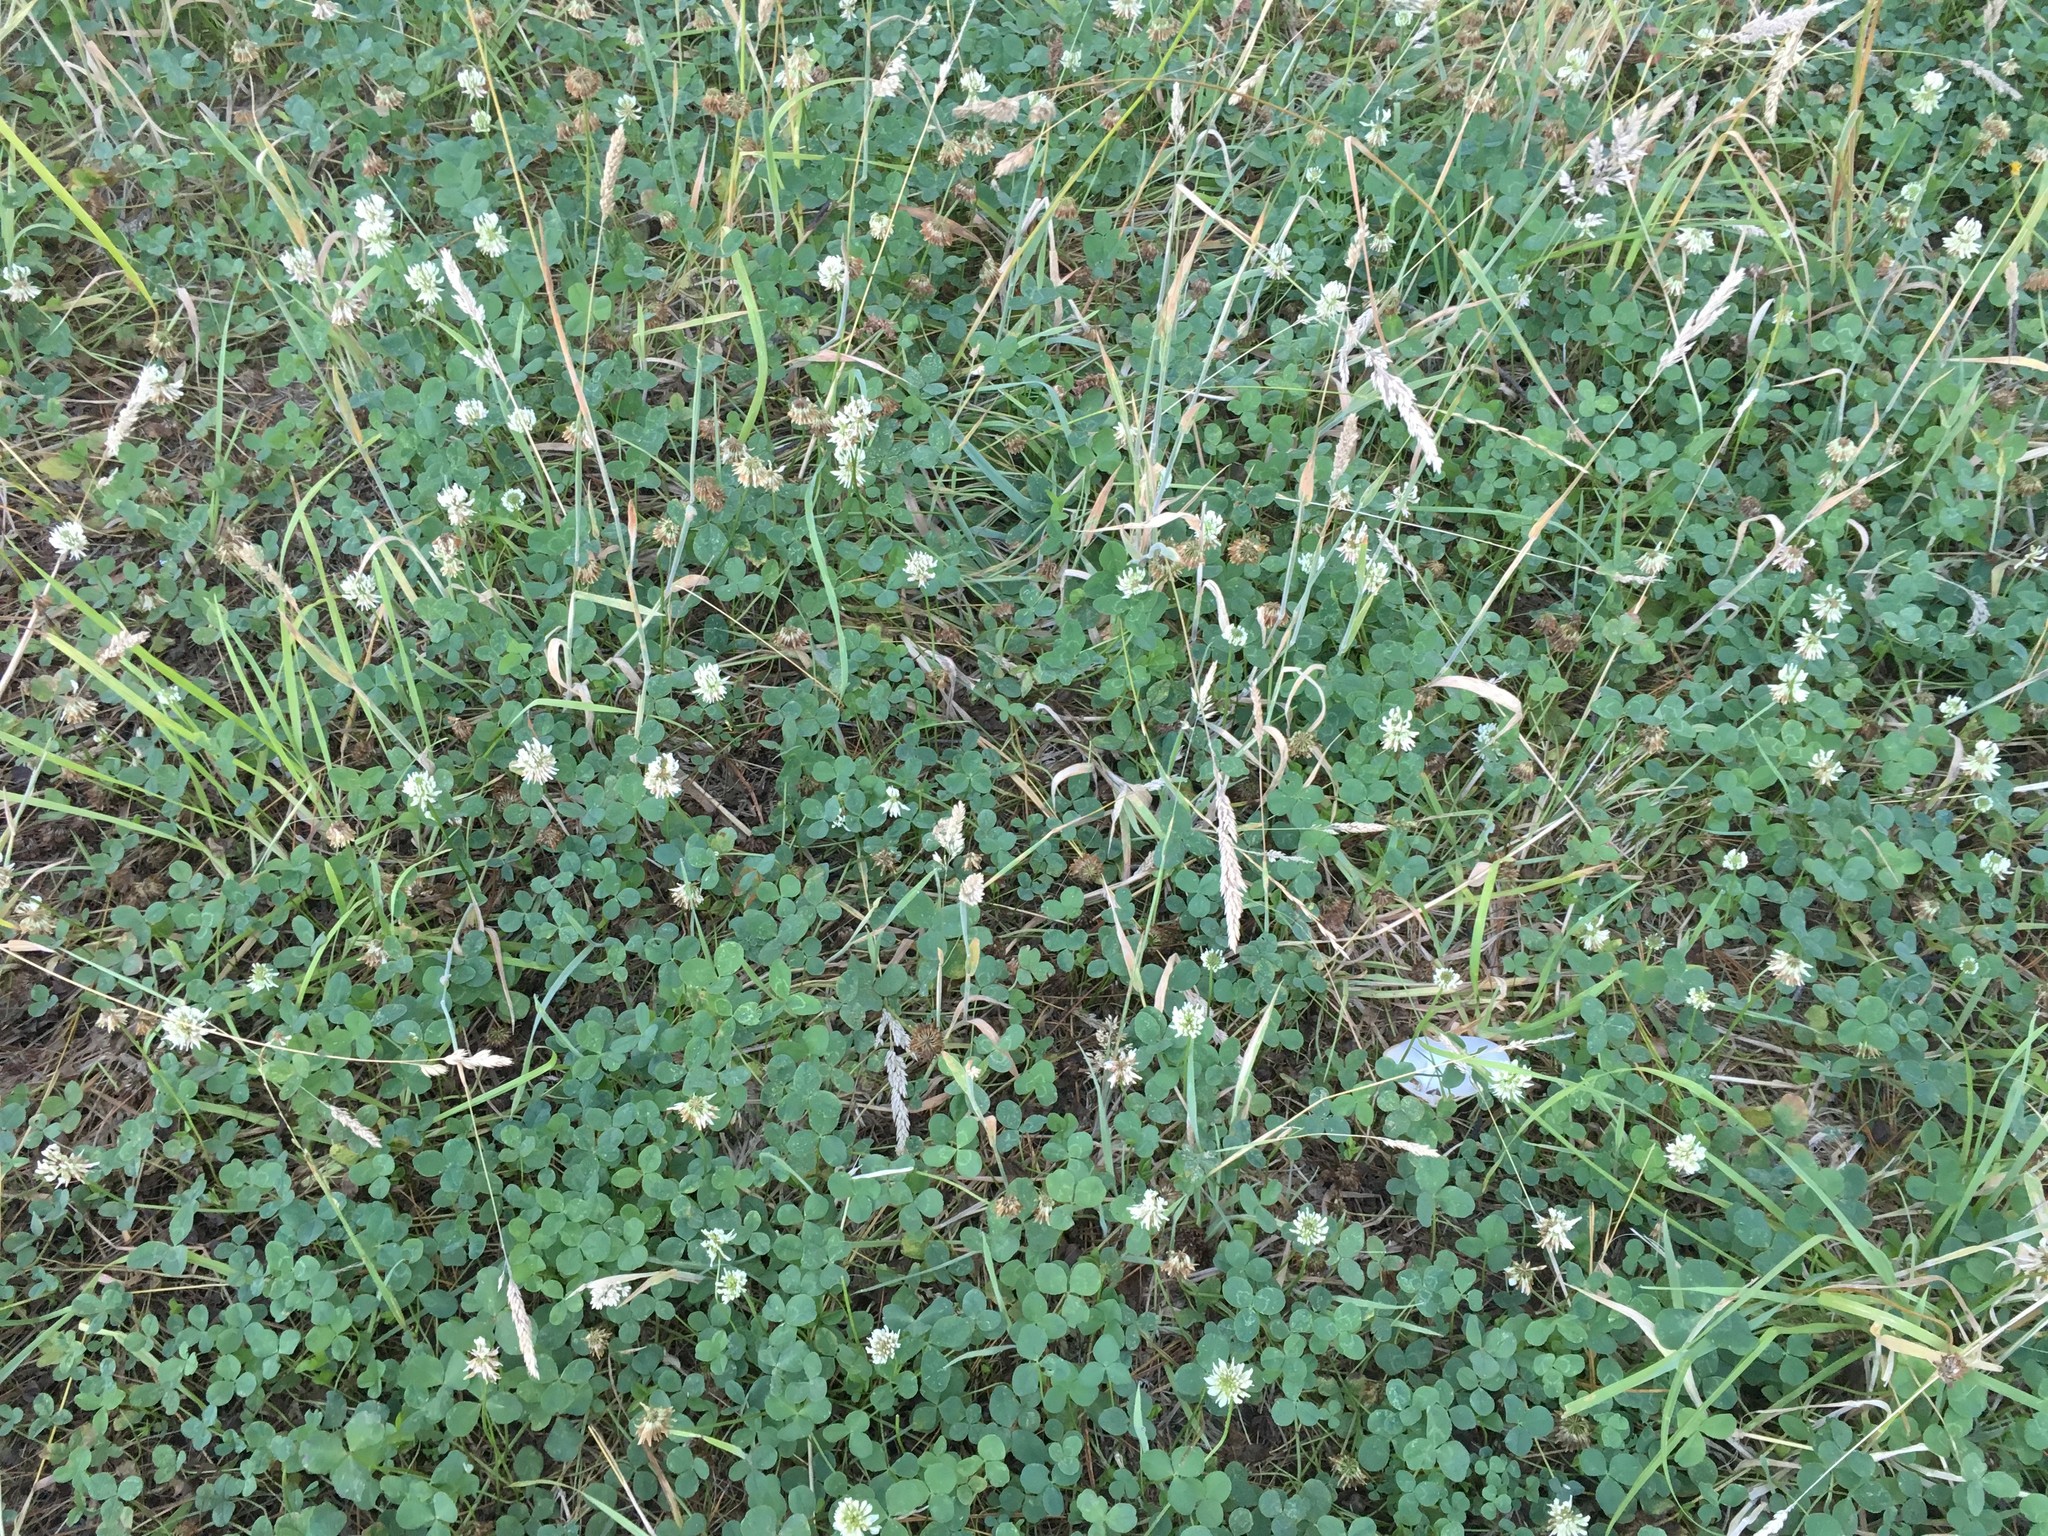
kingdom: Plantae
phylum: Tracheophyta
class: Magnoliopsida
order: Fabales
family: Fabaceae
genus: Trifolium
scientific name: Trifolium repens
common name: White clover
